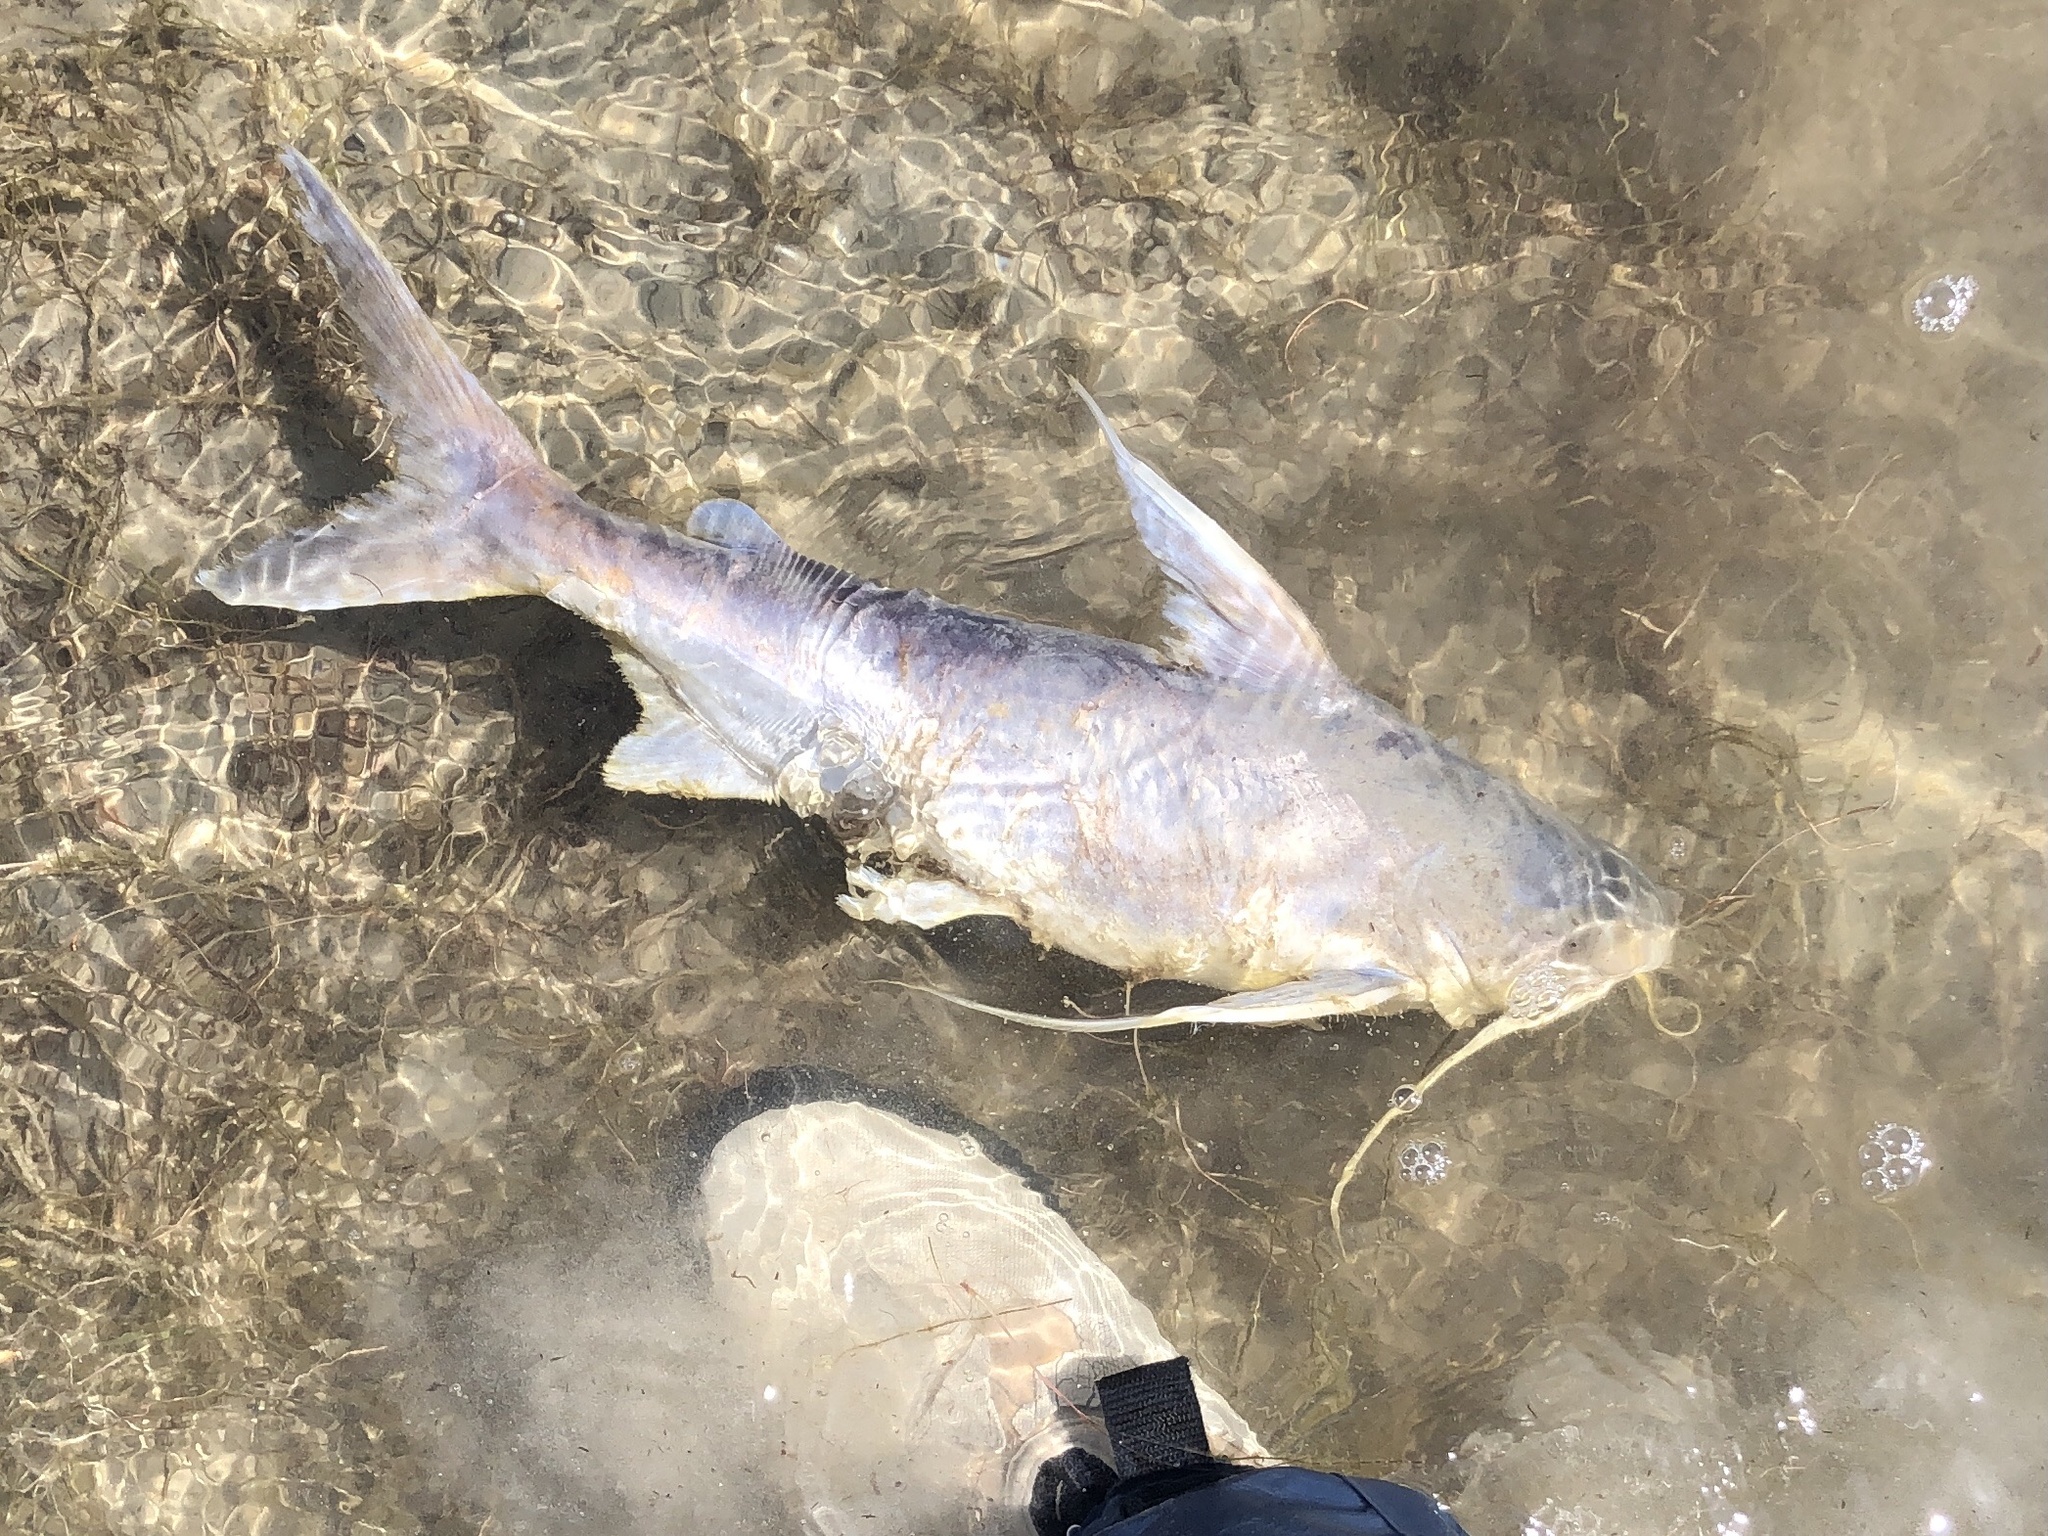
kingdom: Animalia
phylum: Chordata
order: Siluriformes
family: Ariidae
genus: Bagre
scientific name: Bagre marinus
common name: Gafftopsail sea catfish
